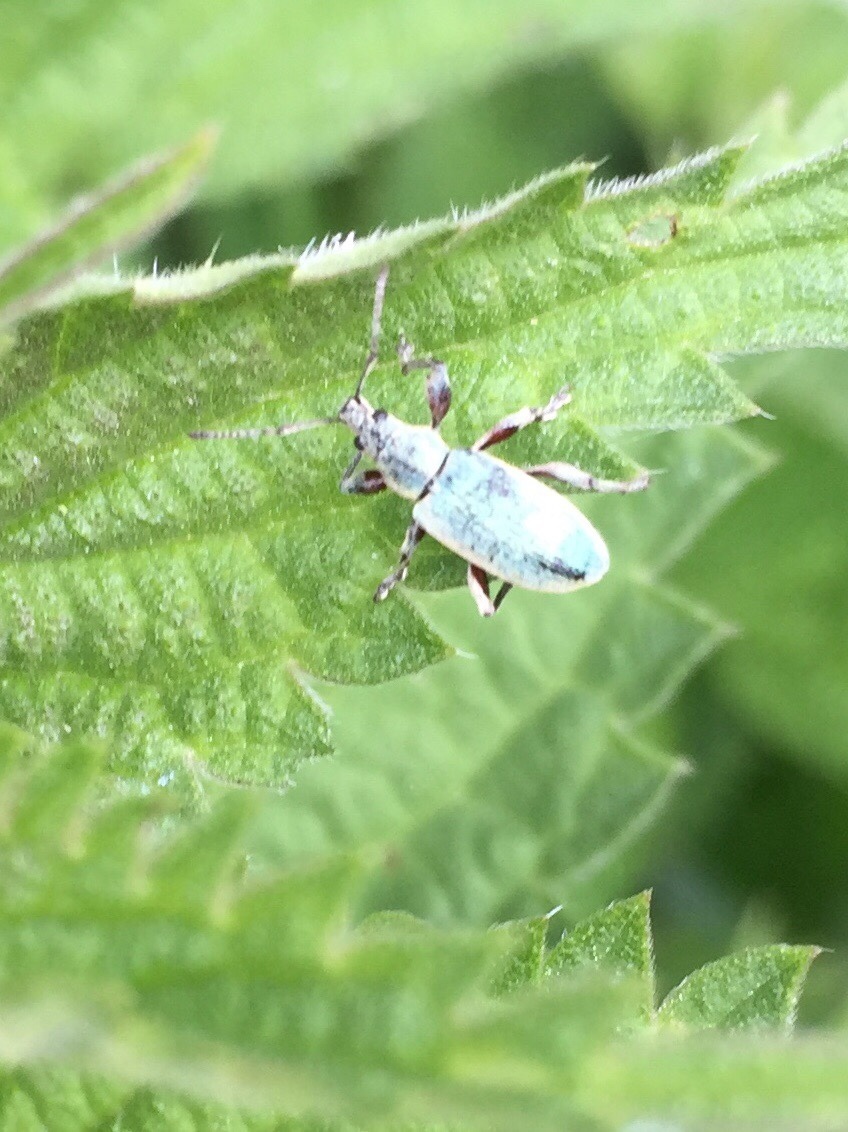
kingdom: Animalia
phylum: Arthropoda
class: Insecta
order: Coleoptera
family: Curculionidae
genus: Phyllobius
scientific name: Phyllobius pomaceus
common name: Green nettle weevil
